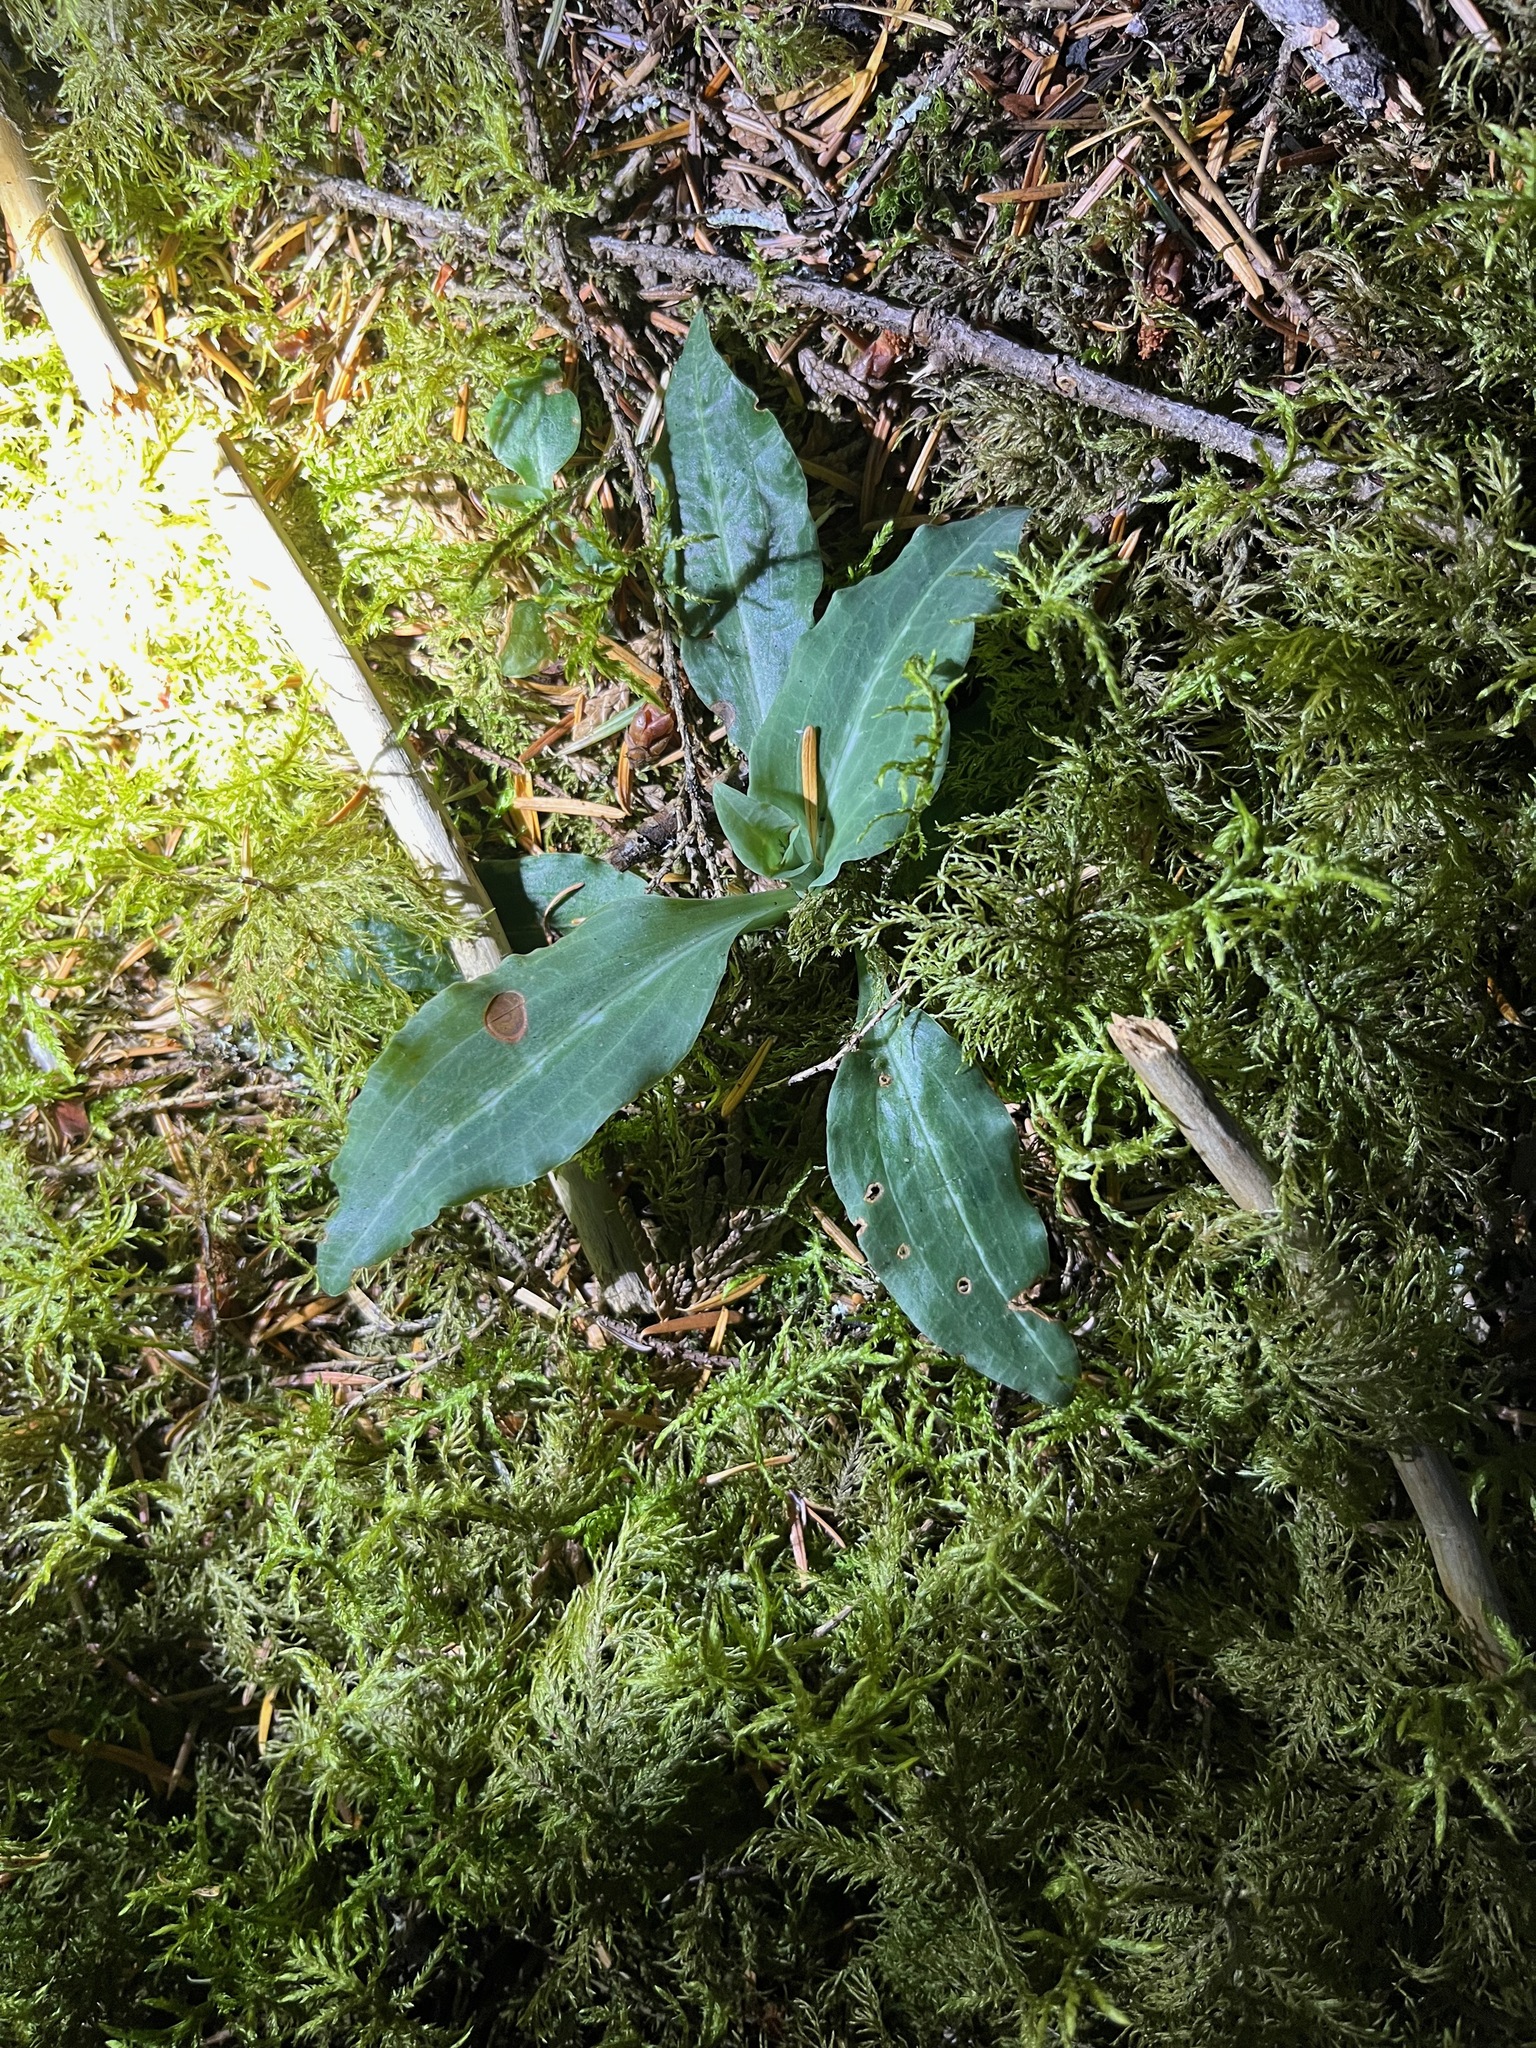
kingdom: Plantae
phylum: Tracheophyta
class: Liliopsida
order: Asparagales
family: Orchidaceae
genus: Goodyera
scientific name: Goodyera oblongifolia
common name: Giant rattlesnake-plantain
